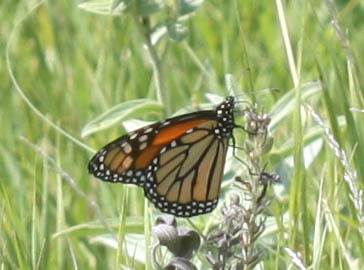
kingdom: Animalia
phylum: Arthropoda
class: Insecta
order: Lepidoptera
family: Nymphalidae
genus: Danaus
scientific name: Danaus plexippus
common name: Monarch
